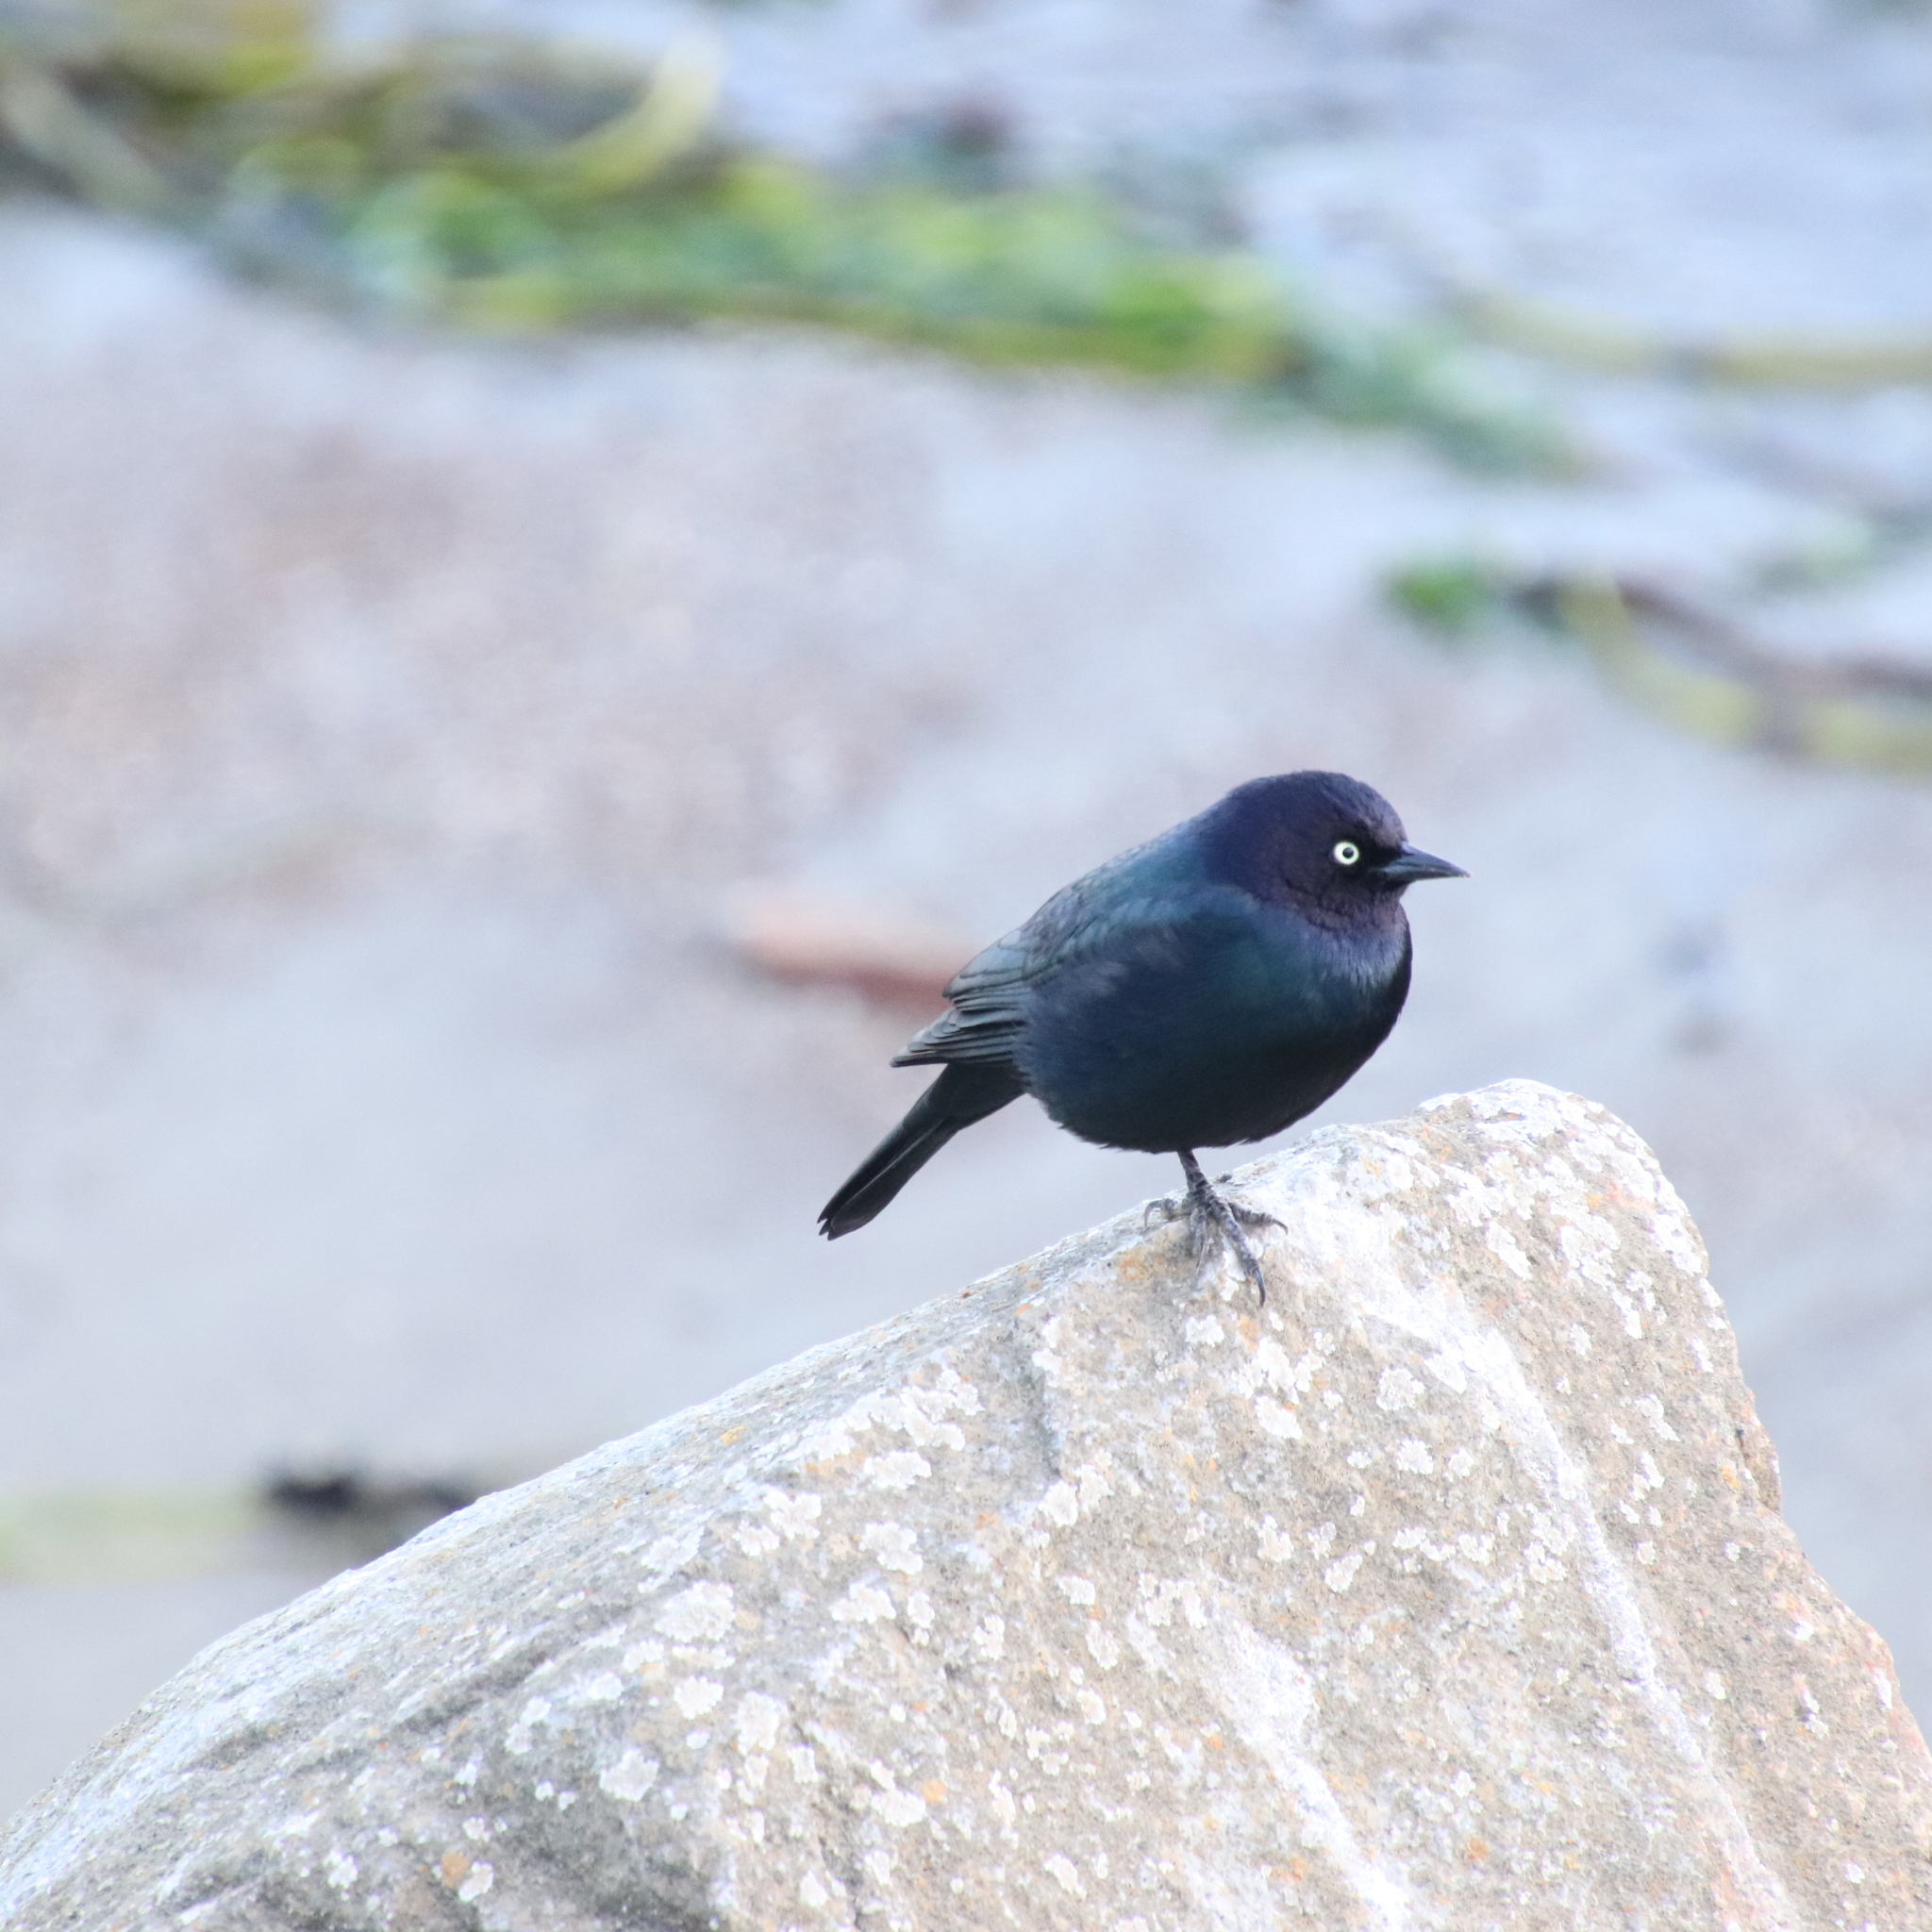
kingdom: Animalia
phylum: Chordata
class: Aves
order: Passeriformes
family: Icteridae
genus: Euphagus
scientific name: Euphagus cyanocephalus
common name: Brewer's blackbird
